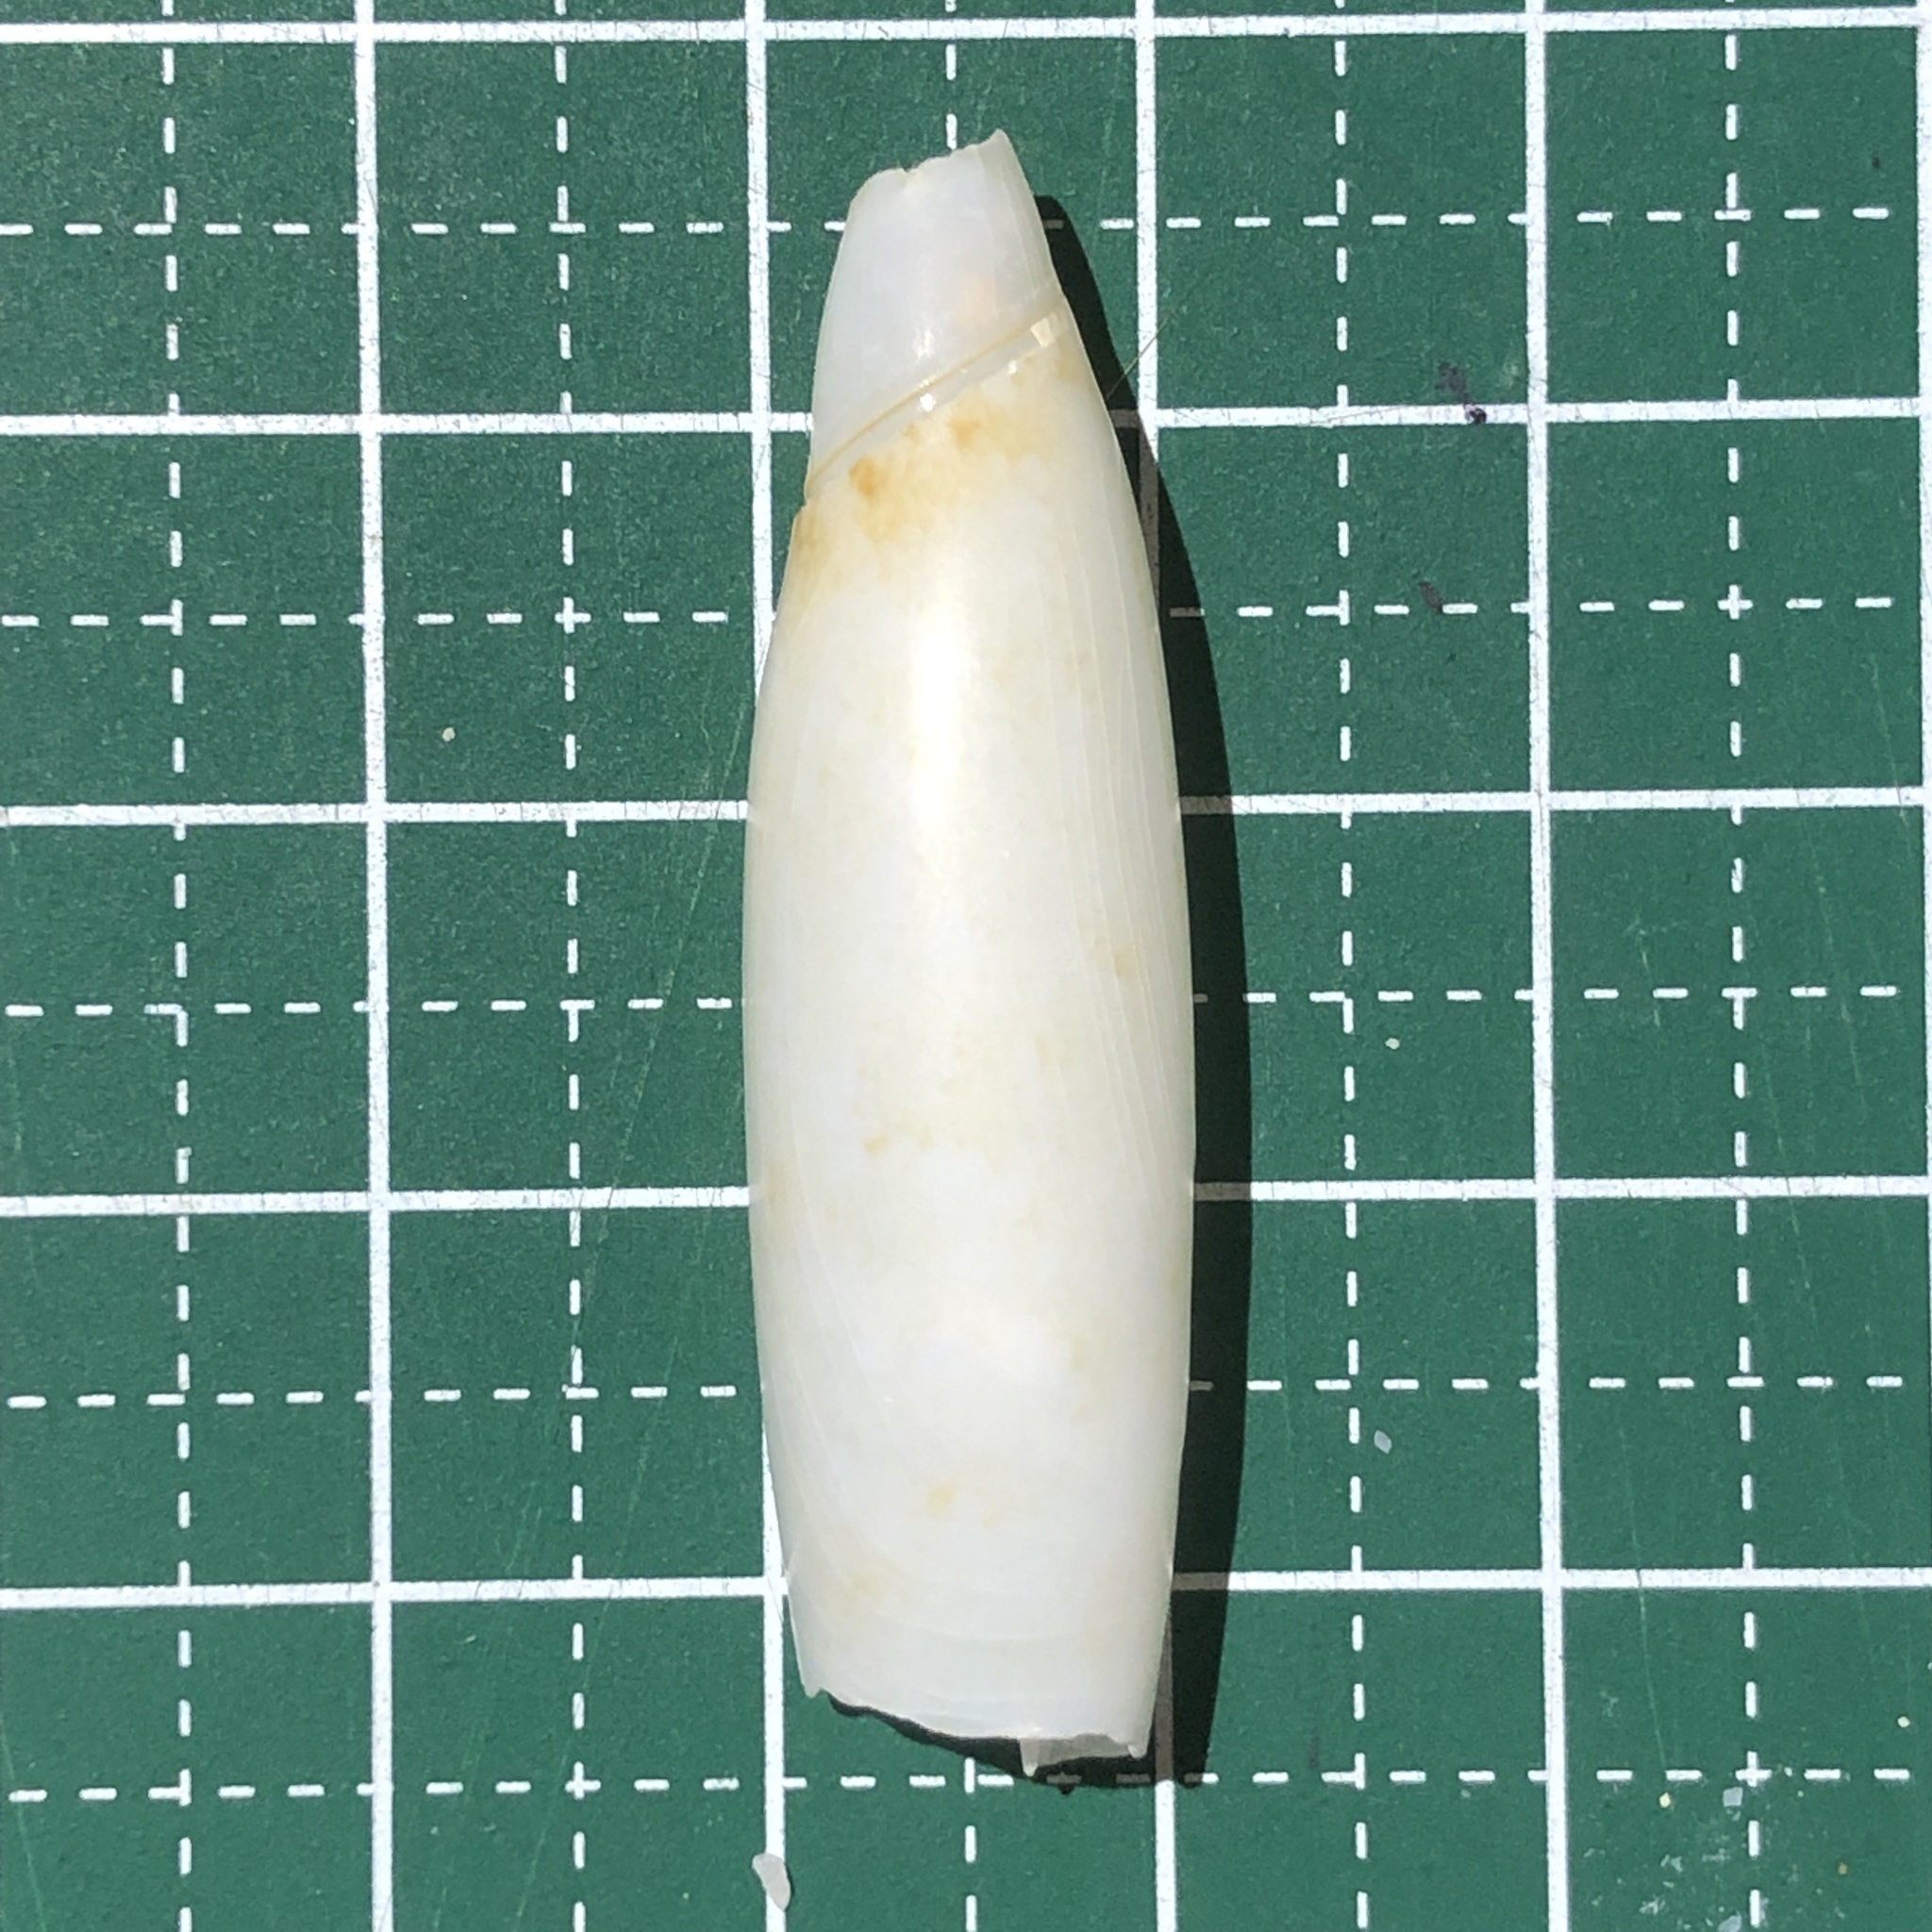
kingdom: Animalia
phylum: Mollusca
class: Gastropoda
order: Littorinimorpha
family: Seraphsidae
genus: Terebellum
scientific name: Terebellum terebellum
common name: Little auger
